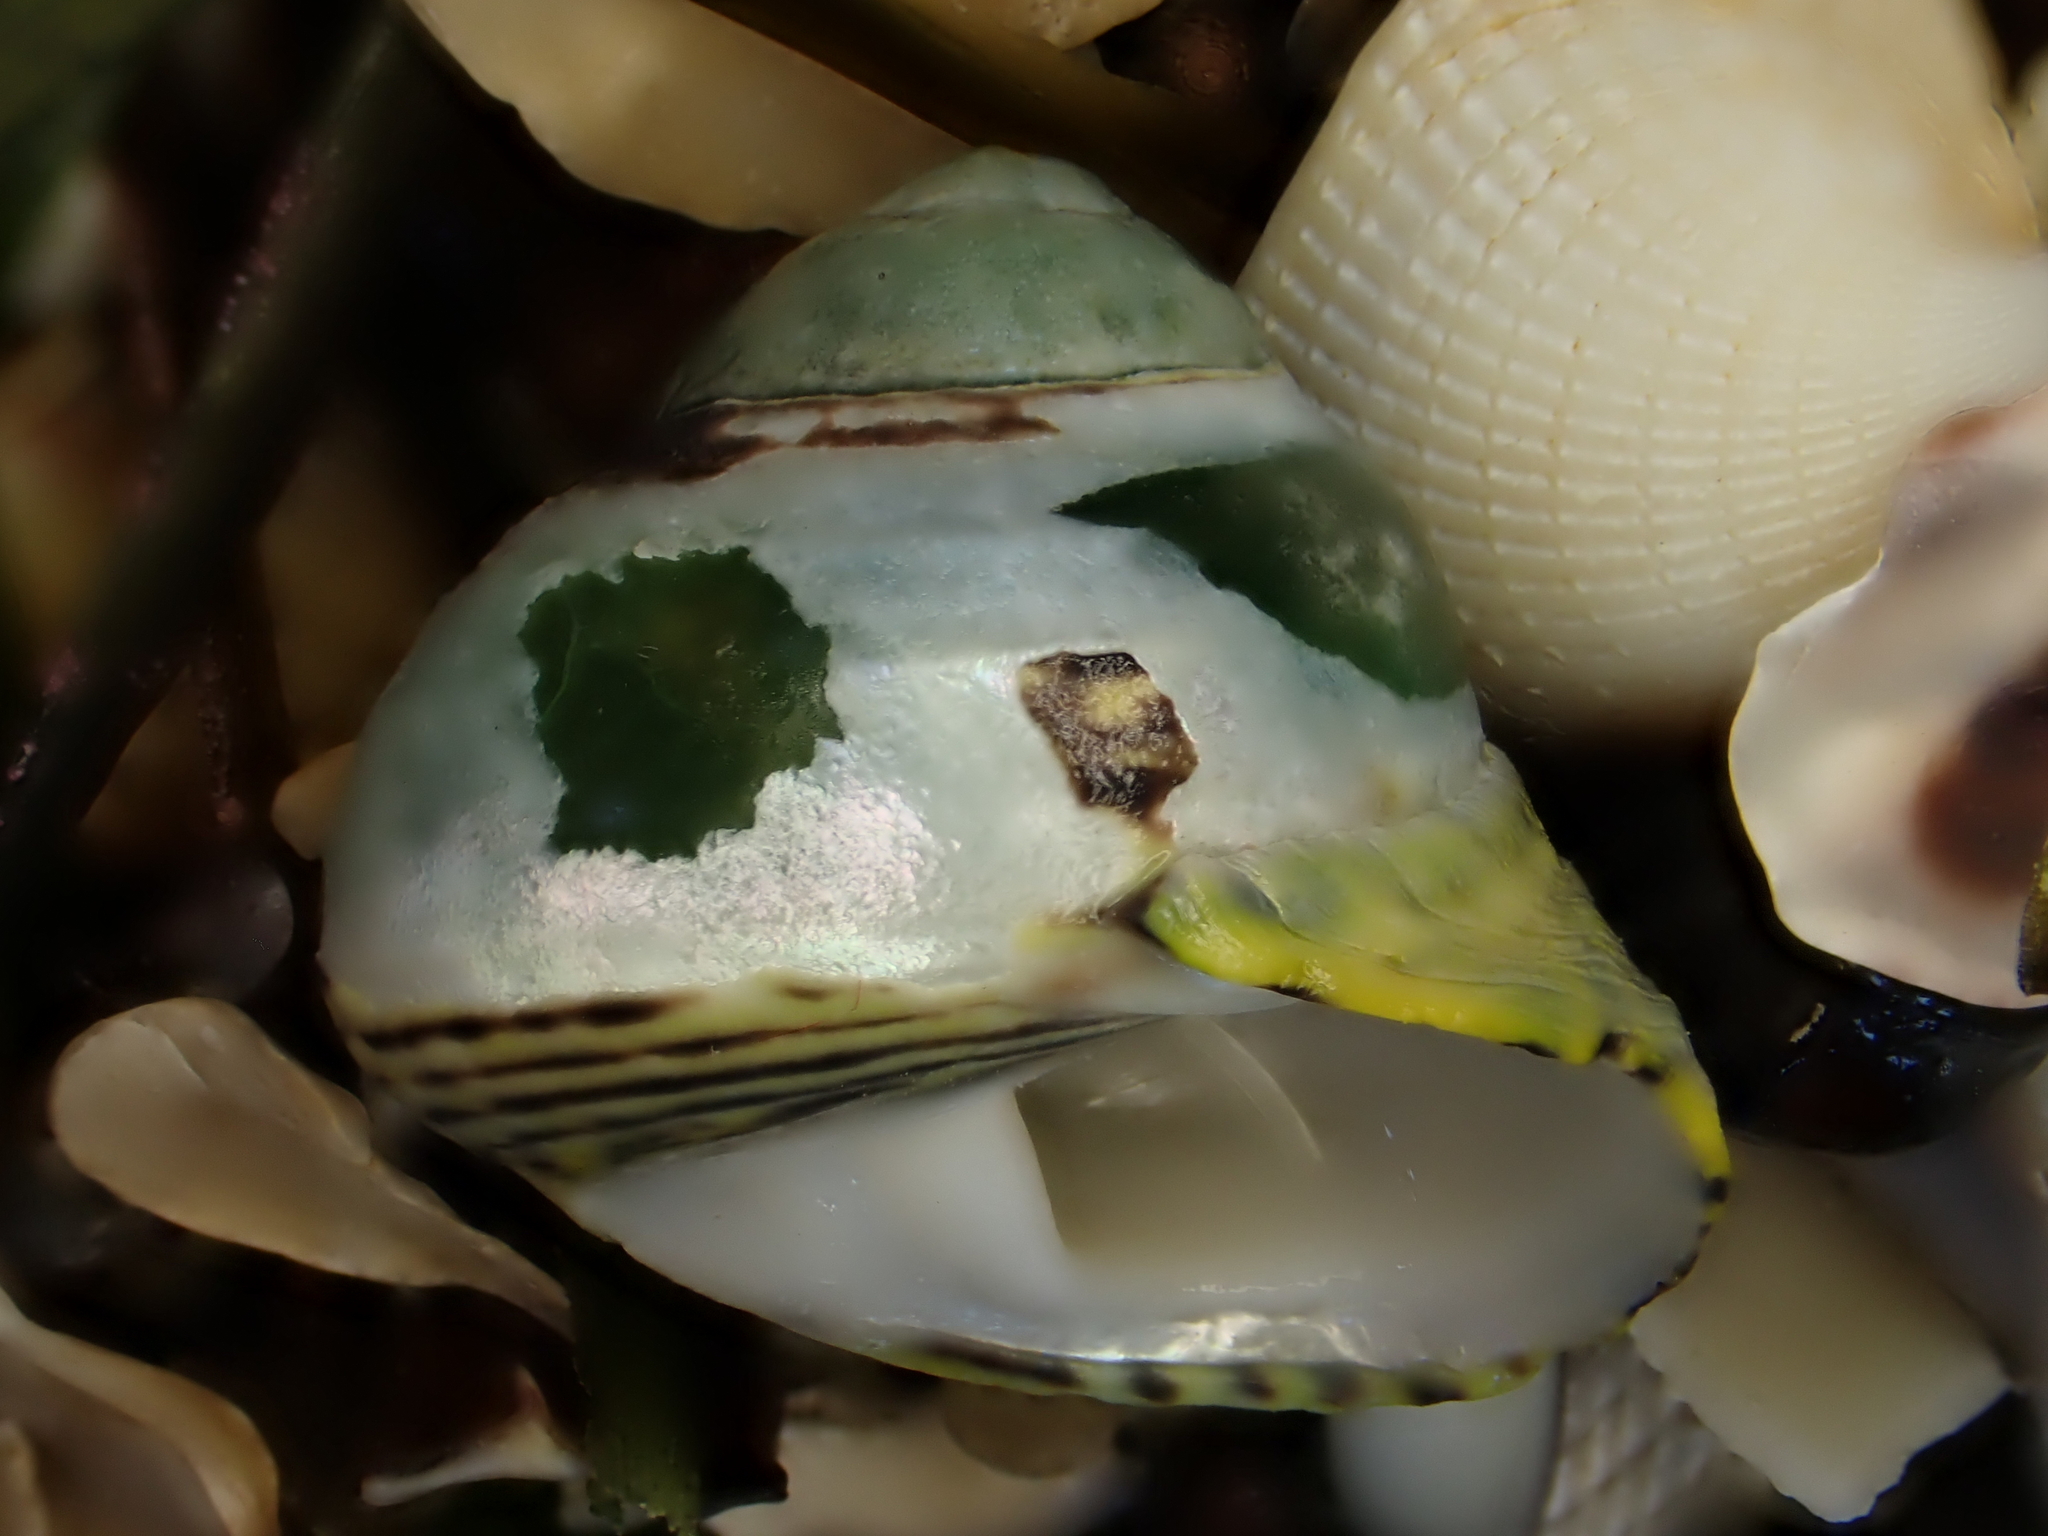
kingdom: Animalia
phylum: Mollusca
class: Gastropoda
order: Trochida
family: Trochidae
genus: Diloma
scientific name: Diloma subrostratum
